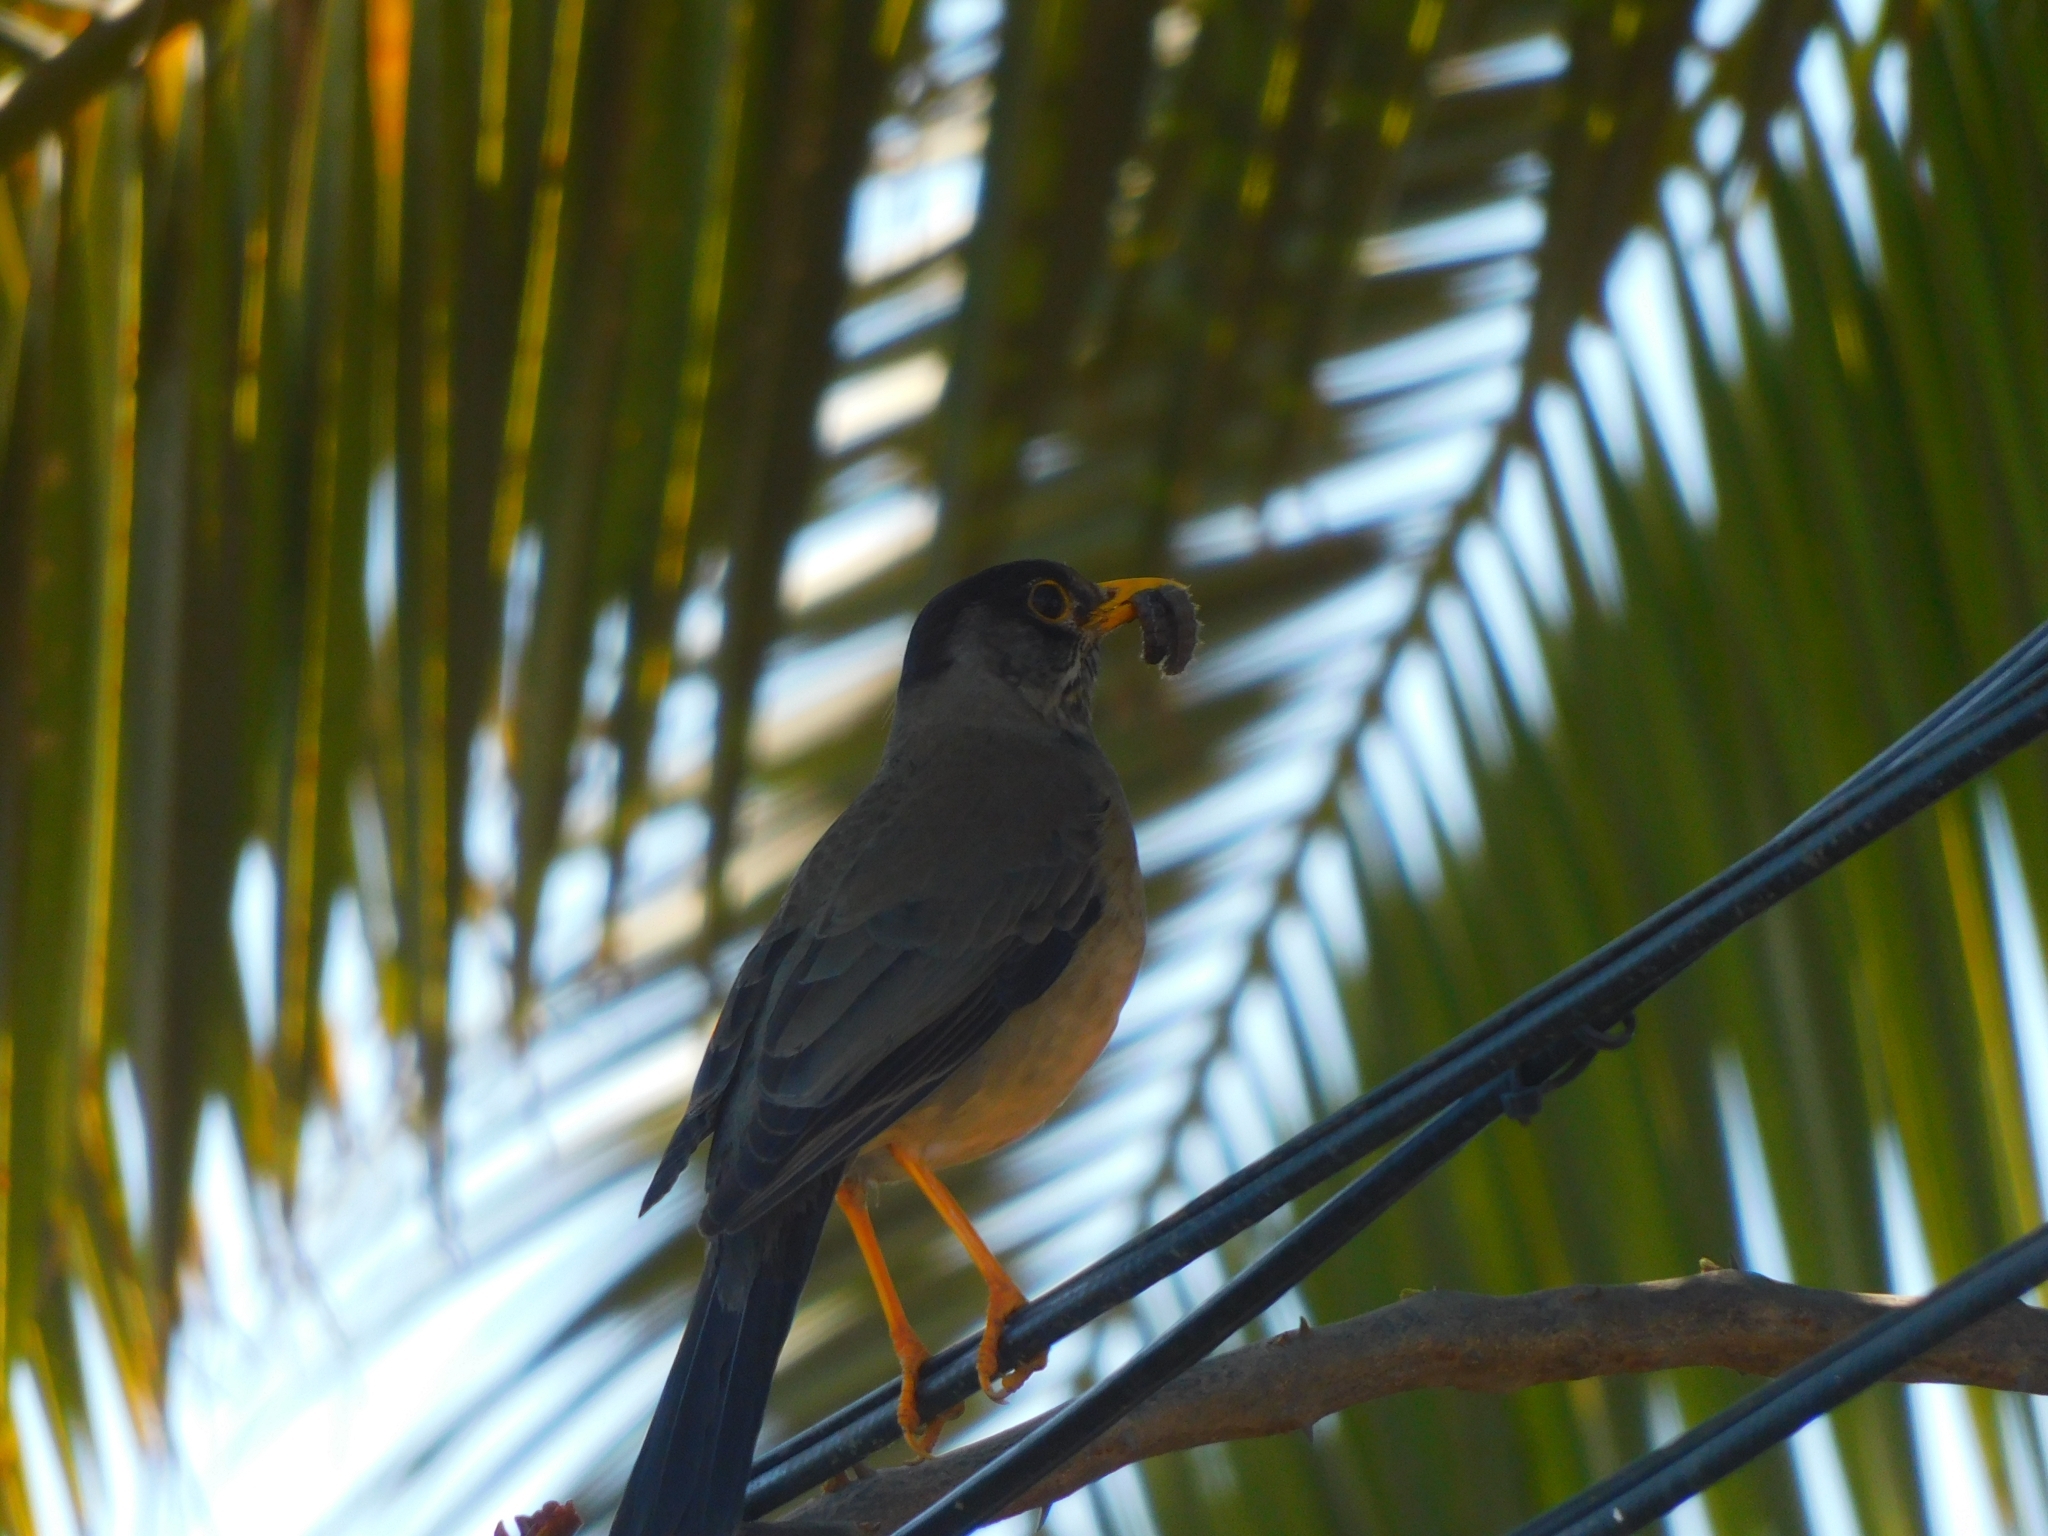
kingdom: Animalia
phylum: Chordata
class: Aves
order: Passeriformes
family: Turdidae
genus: Turdus
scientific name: Turdus falcklandii
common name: Austral thrush
